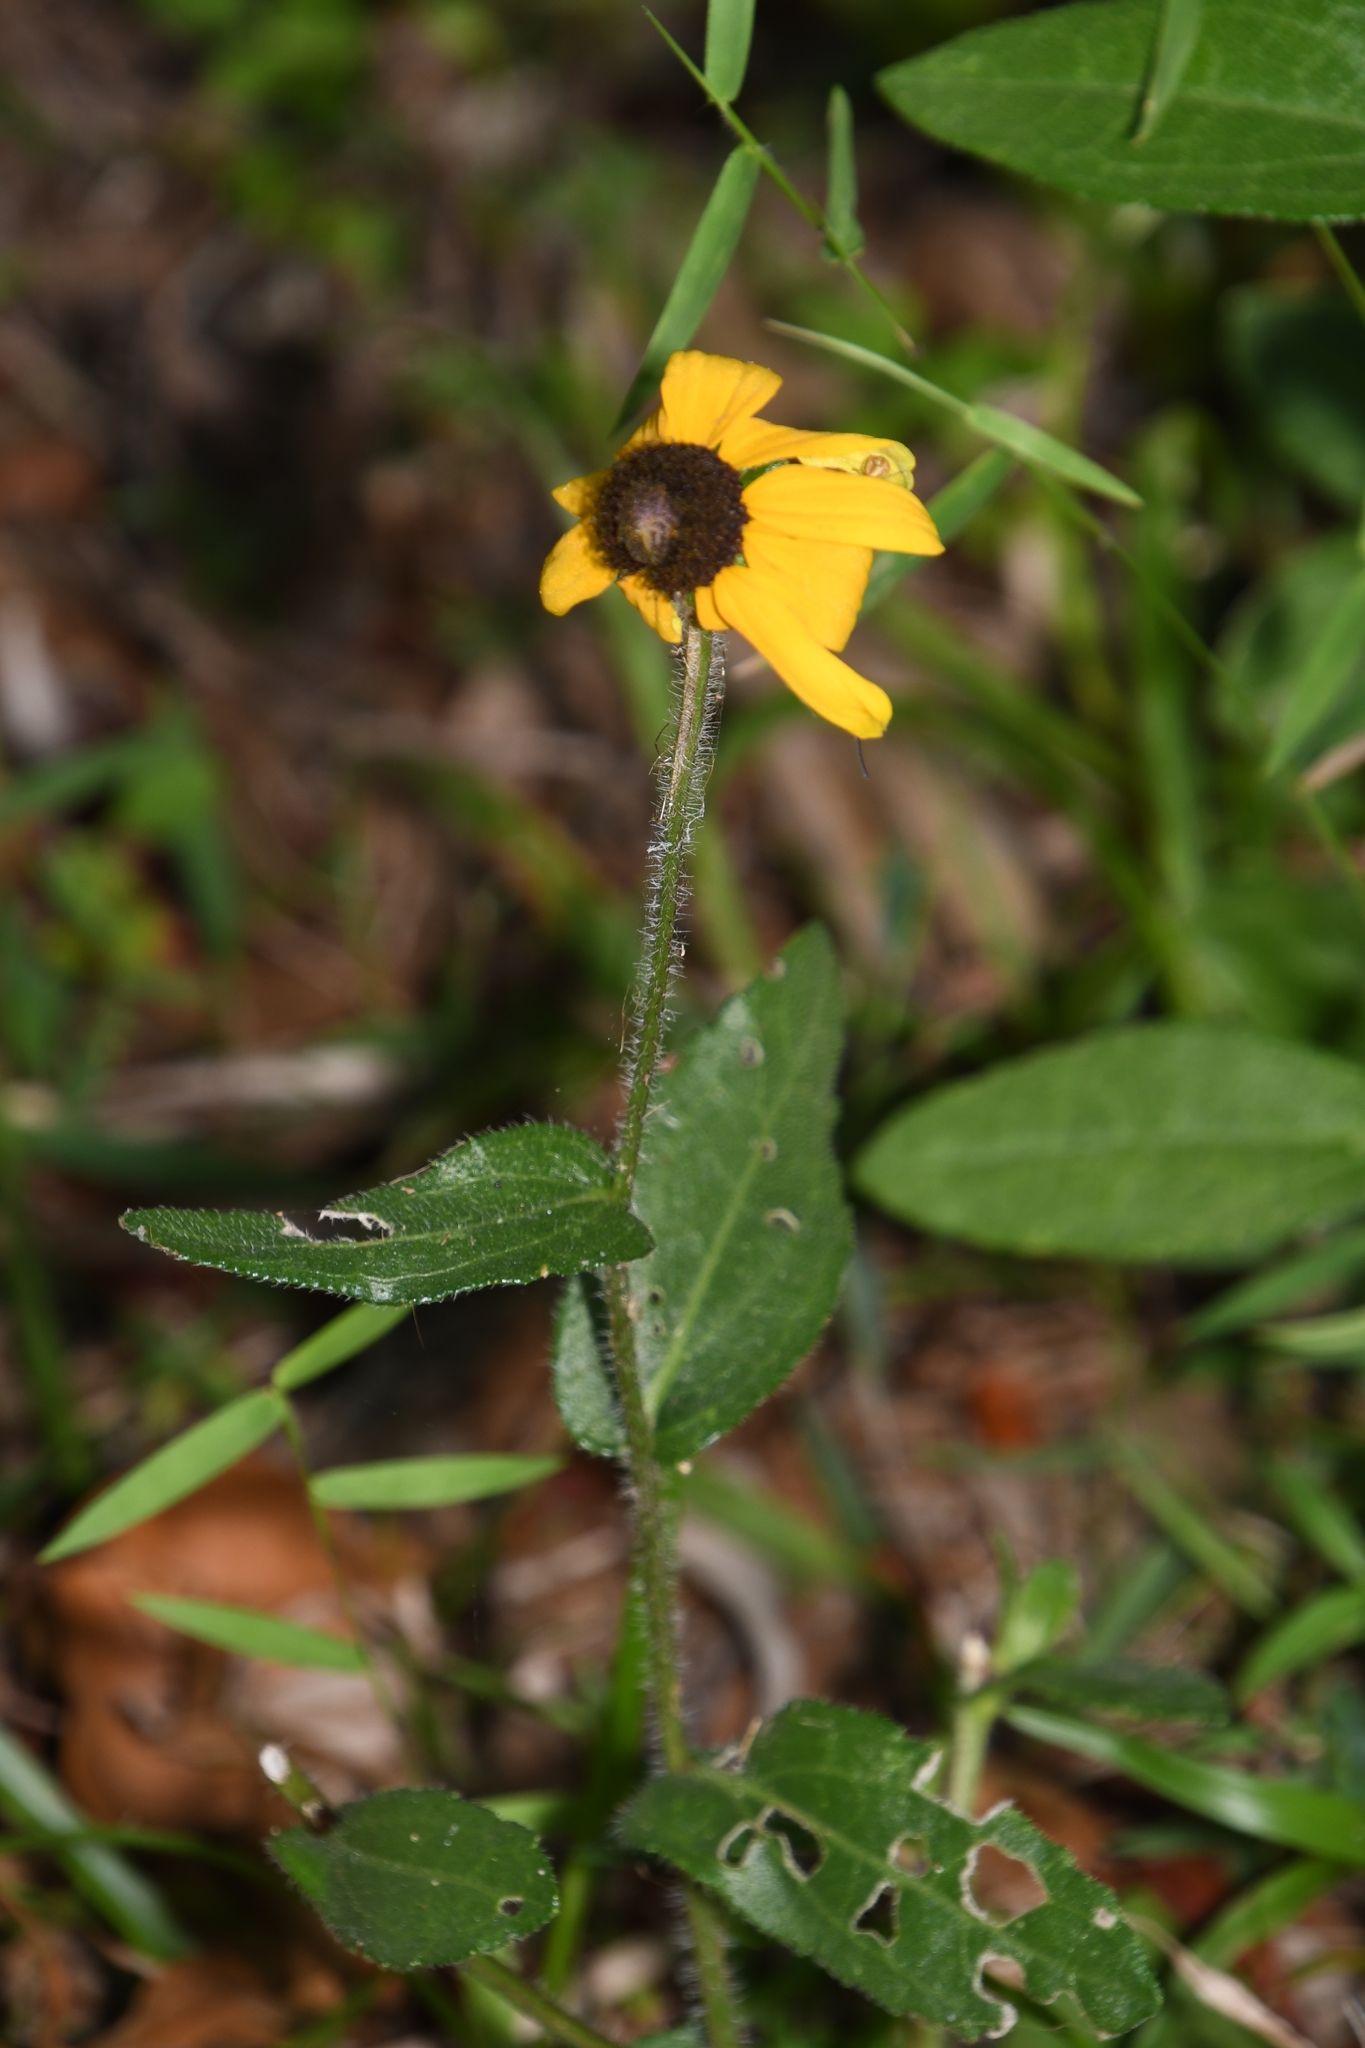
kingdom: Plantae
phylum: Tracheophyta
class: Magnoliopsida
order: Asterales
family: Asteraceae
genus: Rudbeckia
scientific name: Rudbeckia hirta
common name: Black-eyed-susan
